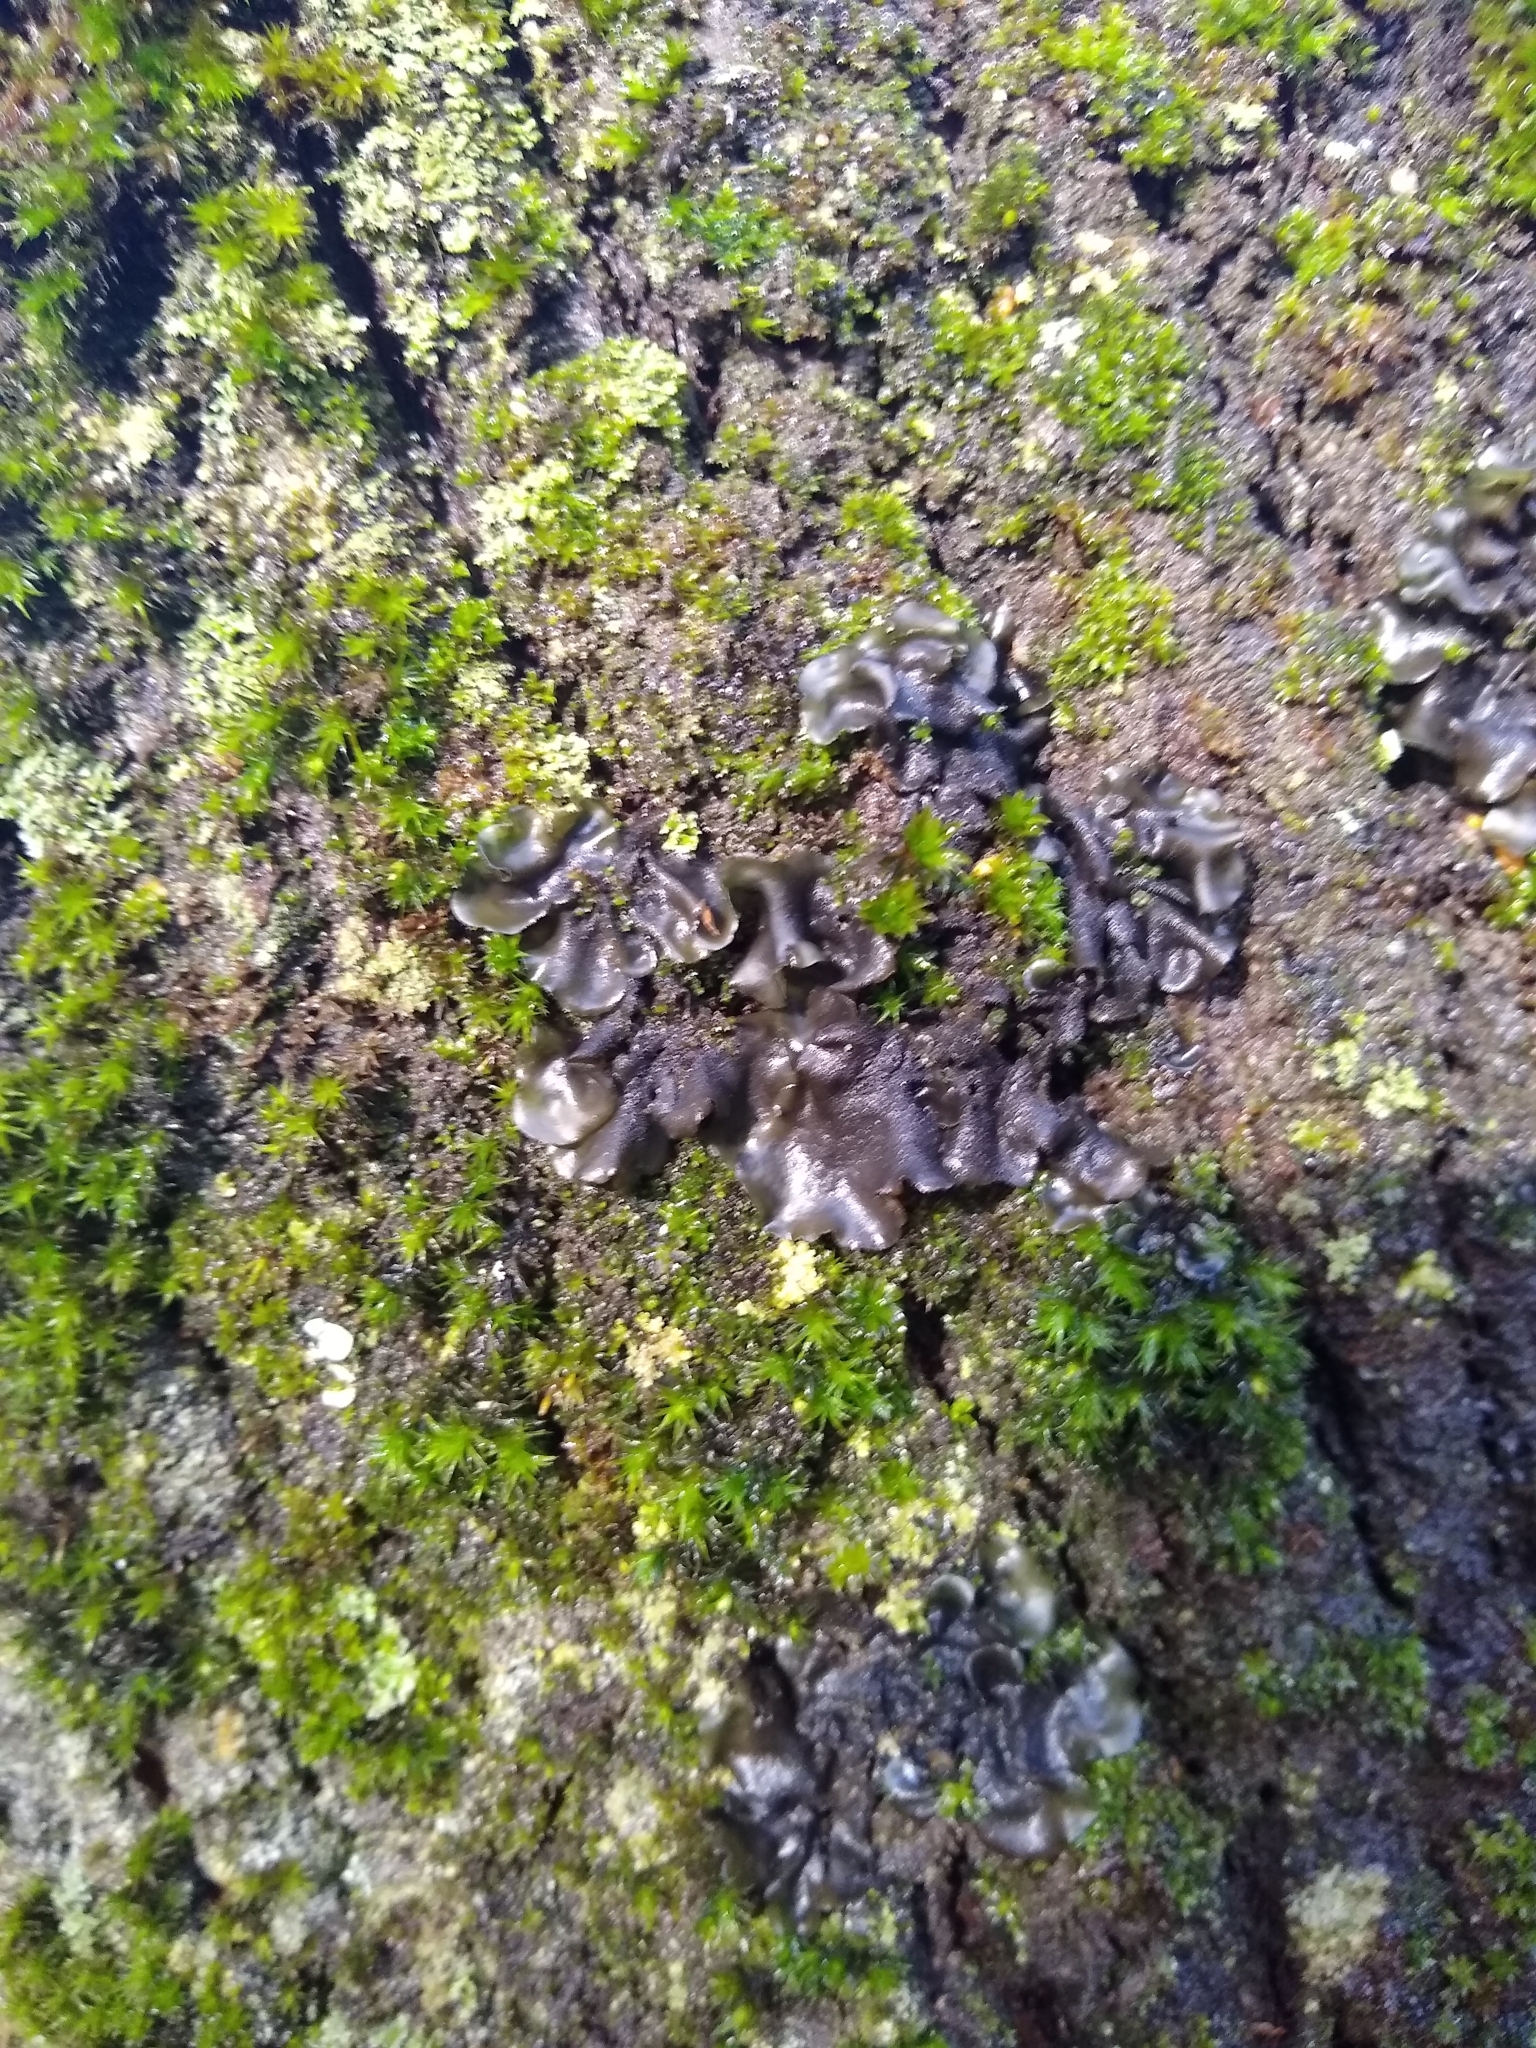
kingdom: Fungi
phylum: Ascomycota
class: Leotiomycetes
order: Helotiales
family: Cordieritidaceae
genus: Ameghiniella
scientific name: Ameghiniella australis
